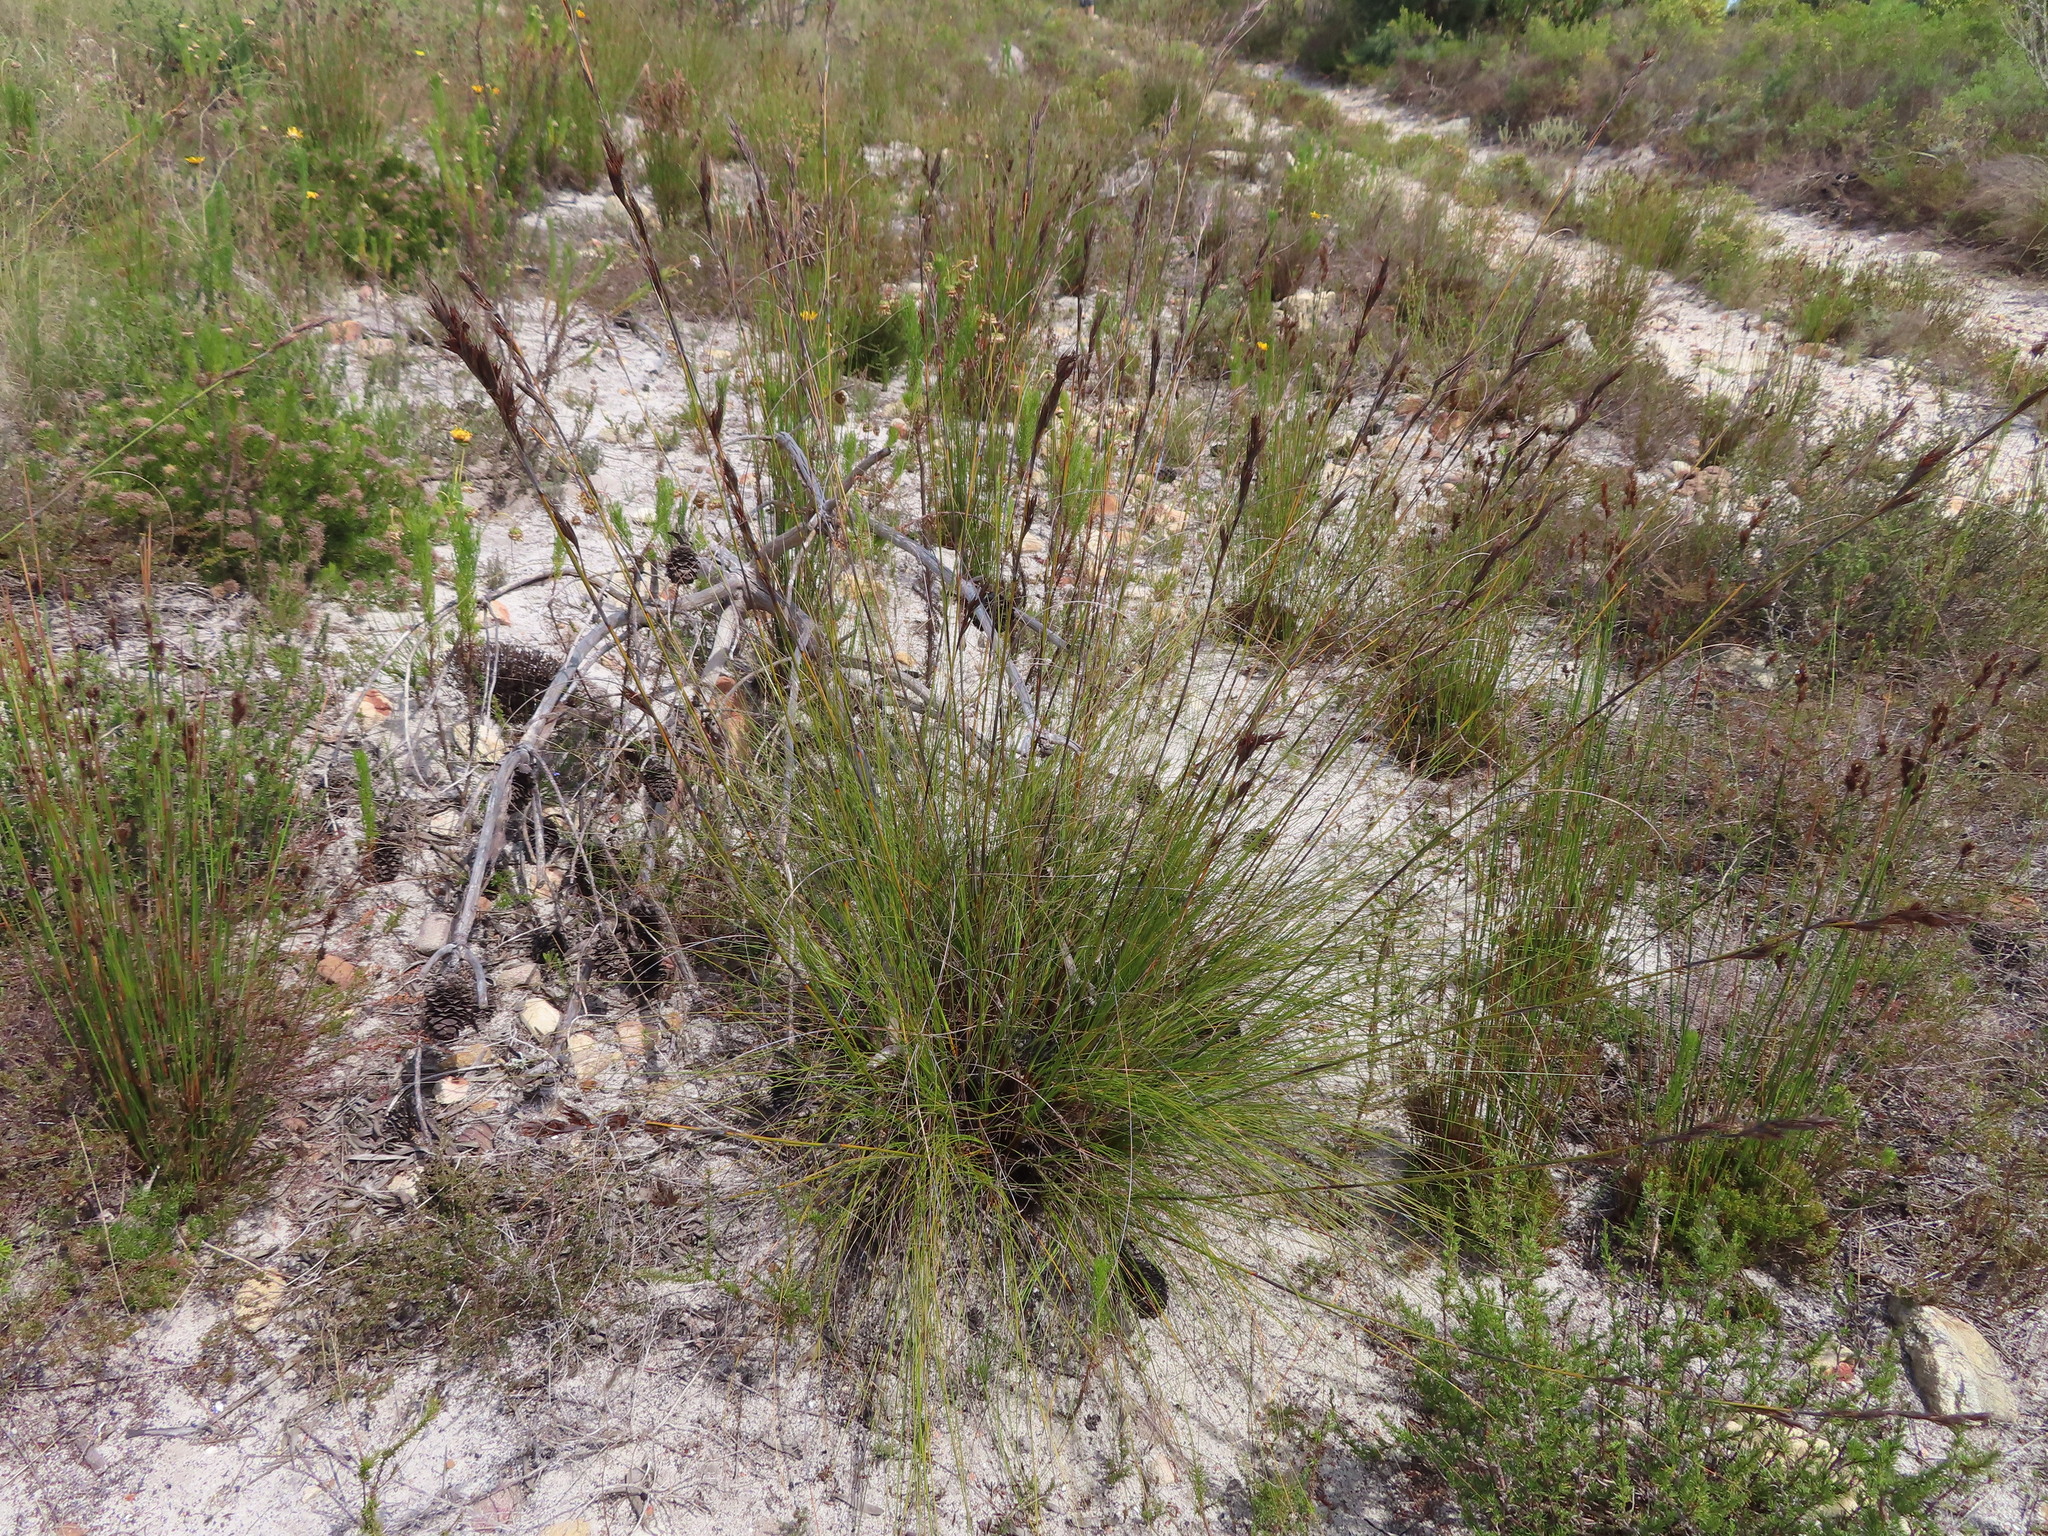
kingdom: Plantae
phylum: Tracheophyta
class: Liliopsida
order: Poales
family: Cyperaceae
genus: Tetraria
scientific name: Tetraria ustulata
